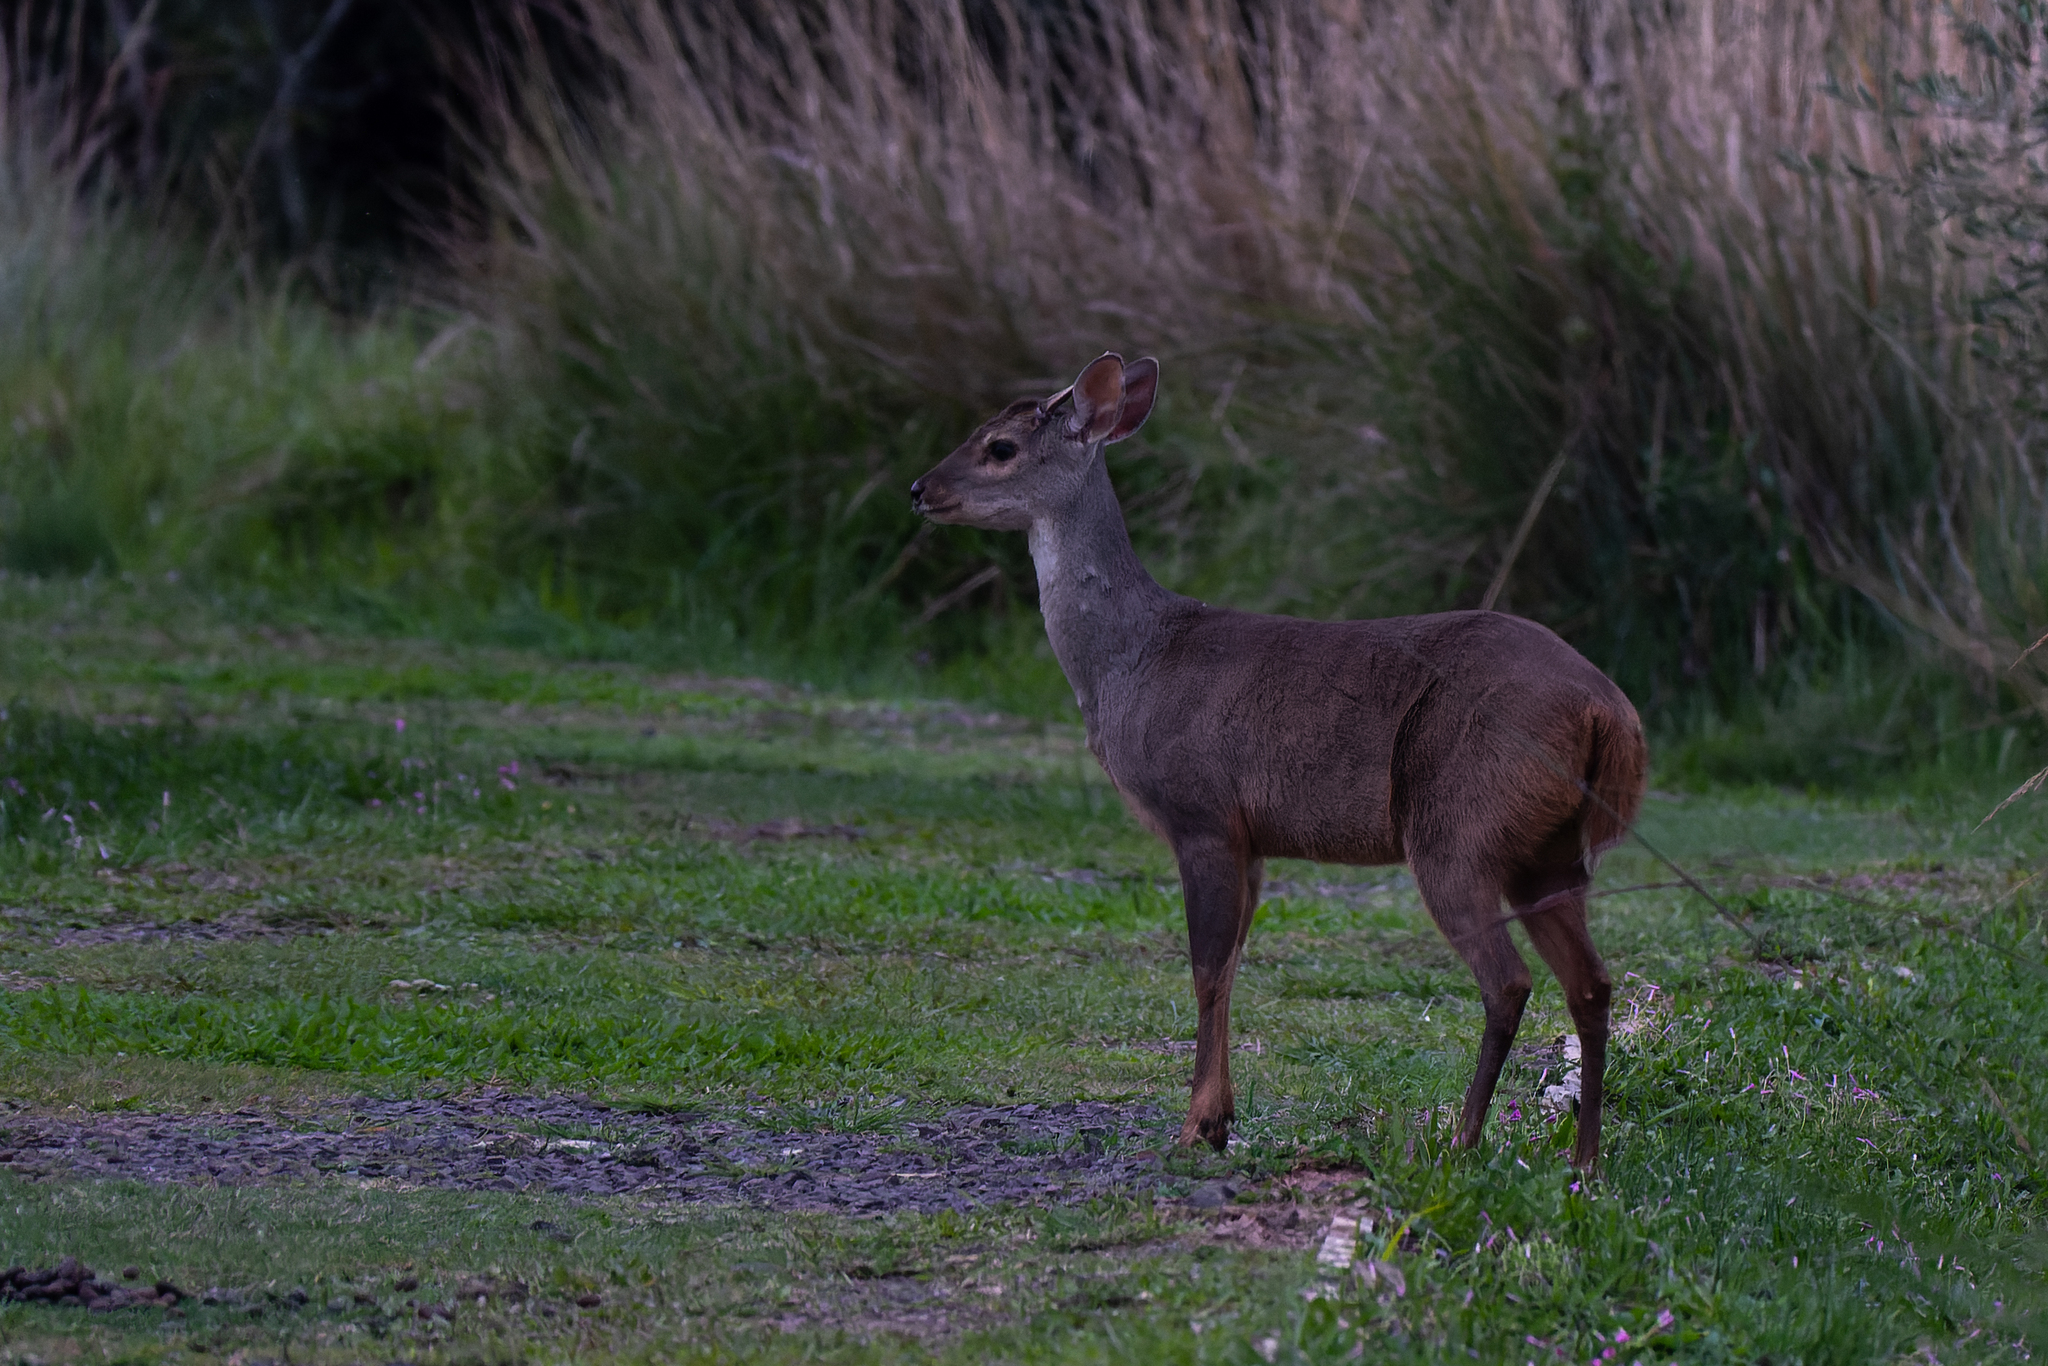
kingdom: Animalia
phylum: Chordata
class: Mammalia
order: Artiodactyla
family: Cervidae
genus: Mazama
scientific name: Mazama gouazoubira
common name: Gray brocket
